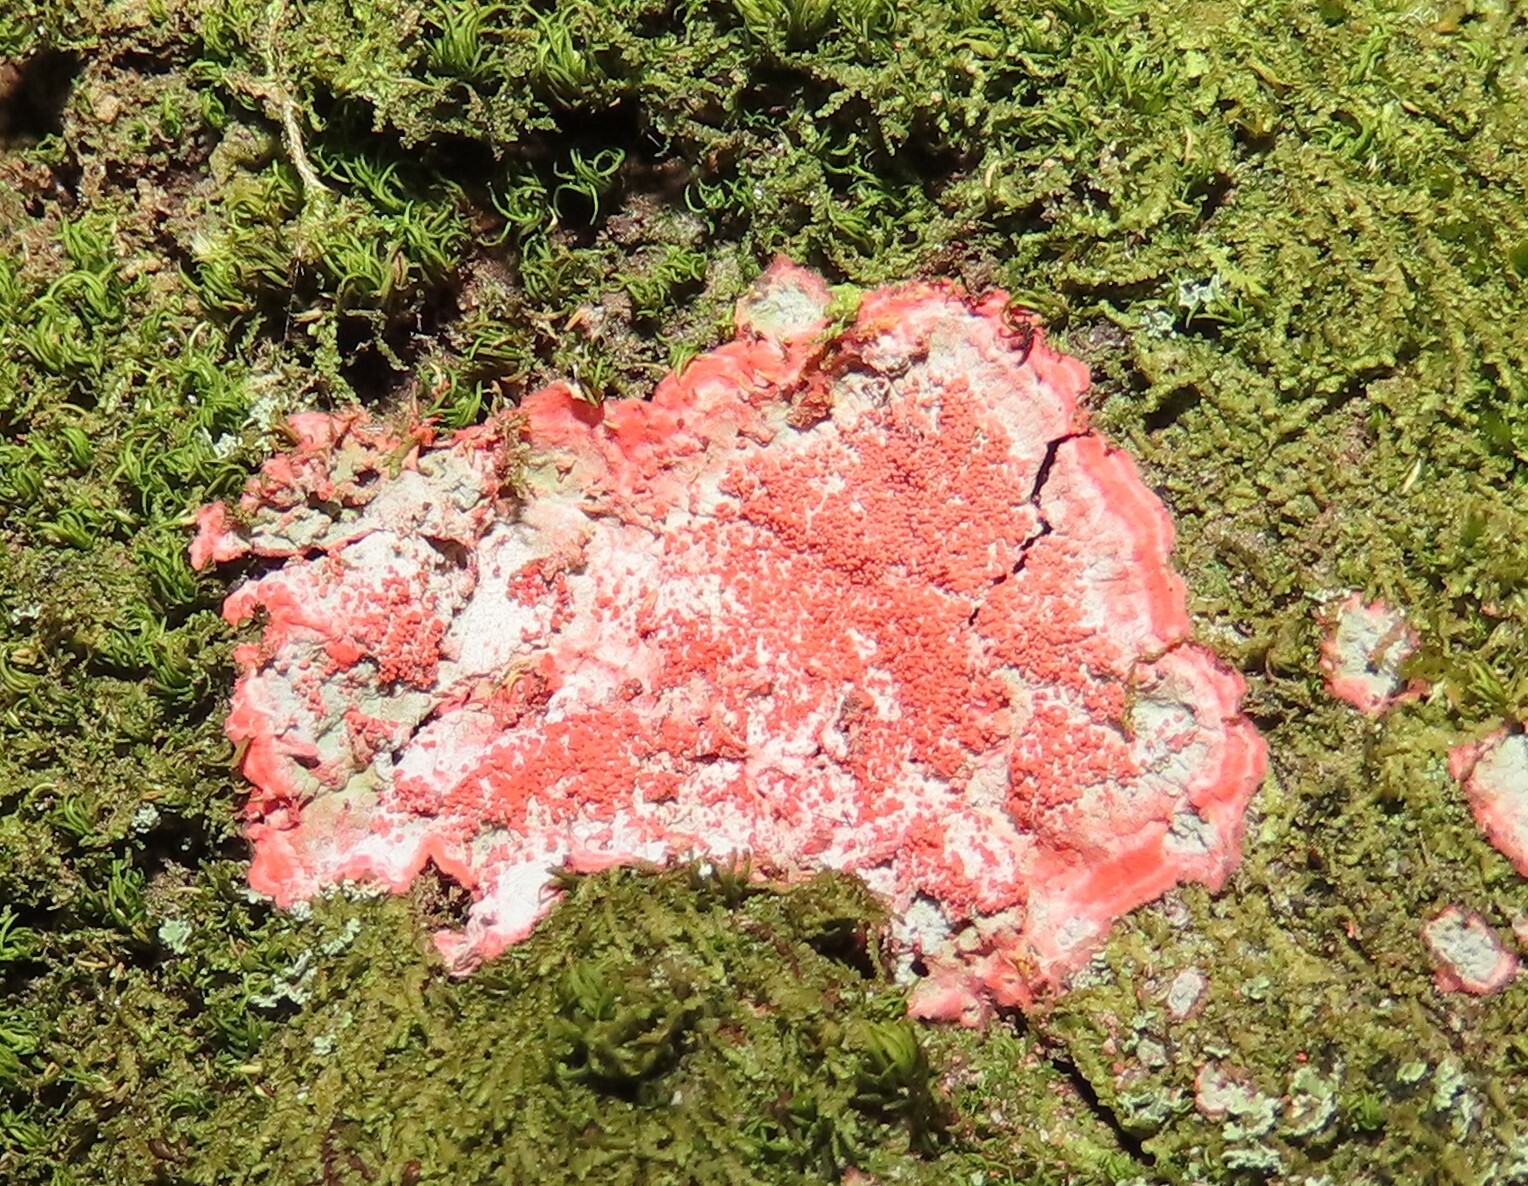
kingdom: Fungi
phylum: Ascomycota
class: Arthoniomycetes
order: Arthoniales
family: Arthoniaceae
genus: Herpothallon
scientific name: Herpothallon rubrocinctum
